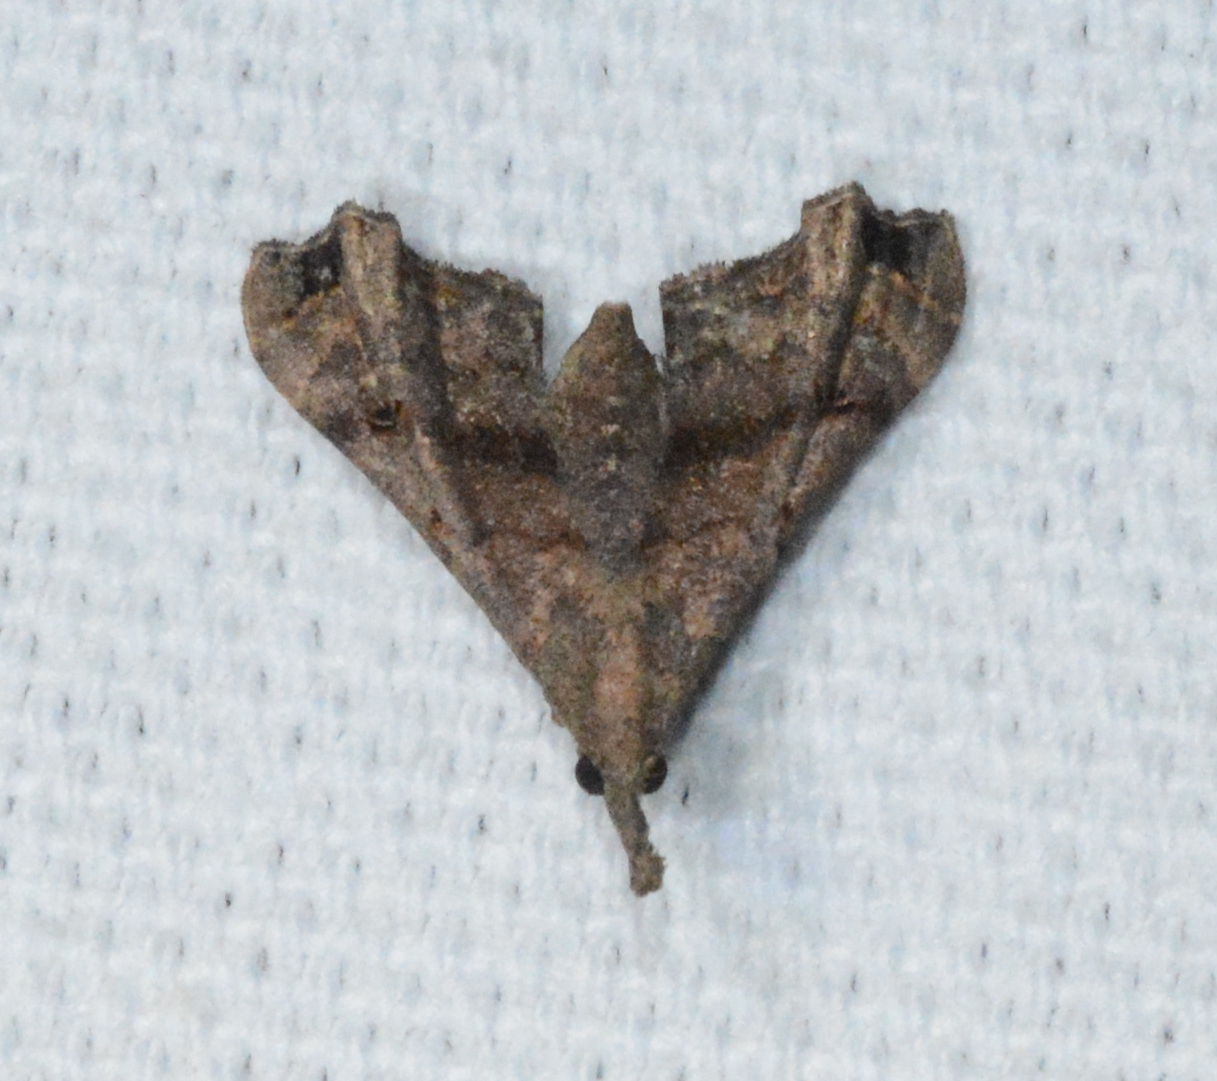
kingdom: Animalia
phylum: Arthropoda
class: Insecta
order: Lepidoptera
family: Erebidae
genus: Palthis
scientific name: Palthis asopialis
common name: Faint-spotted palthis moth
